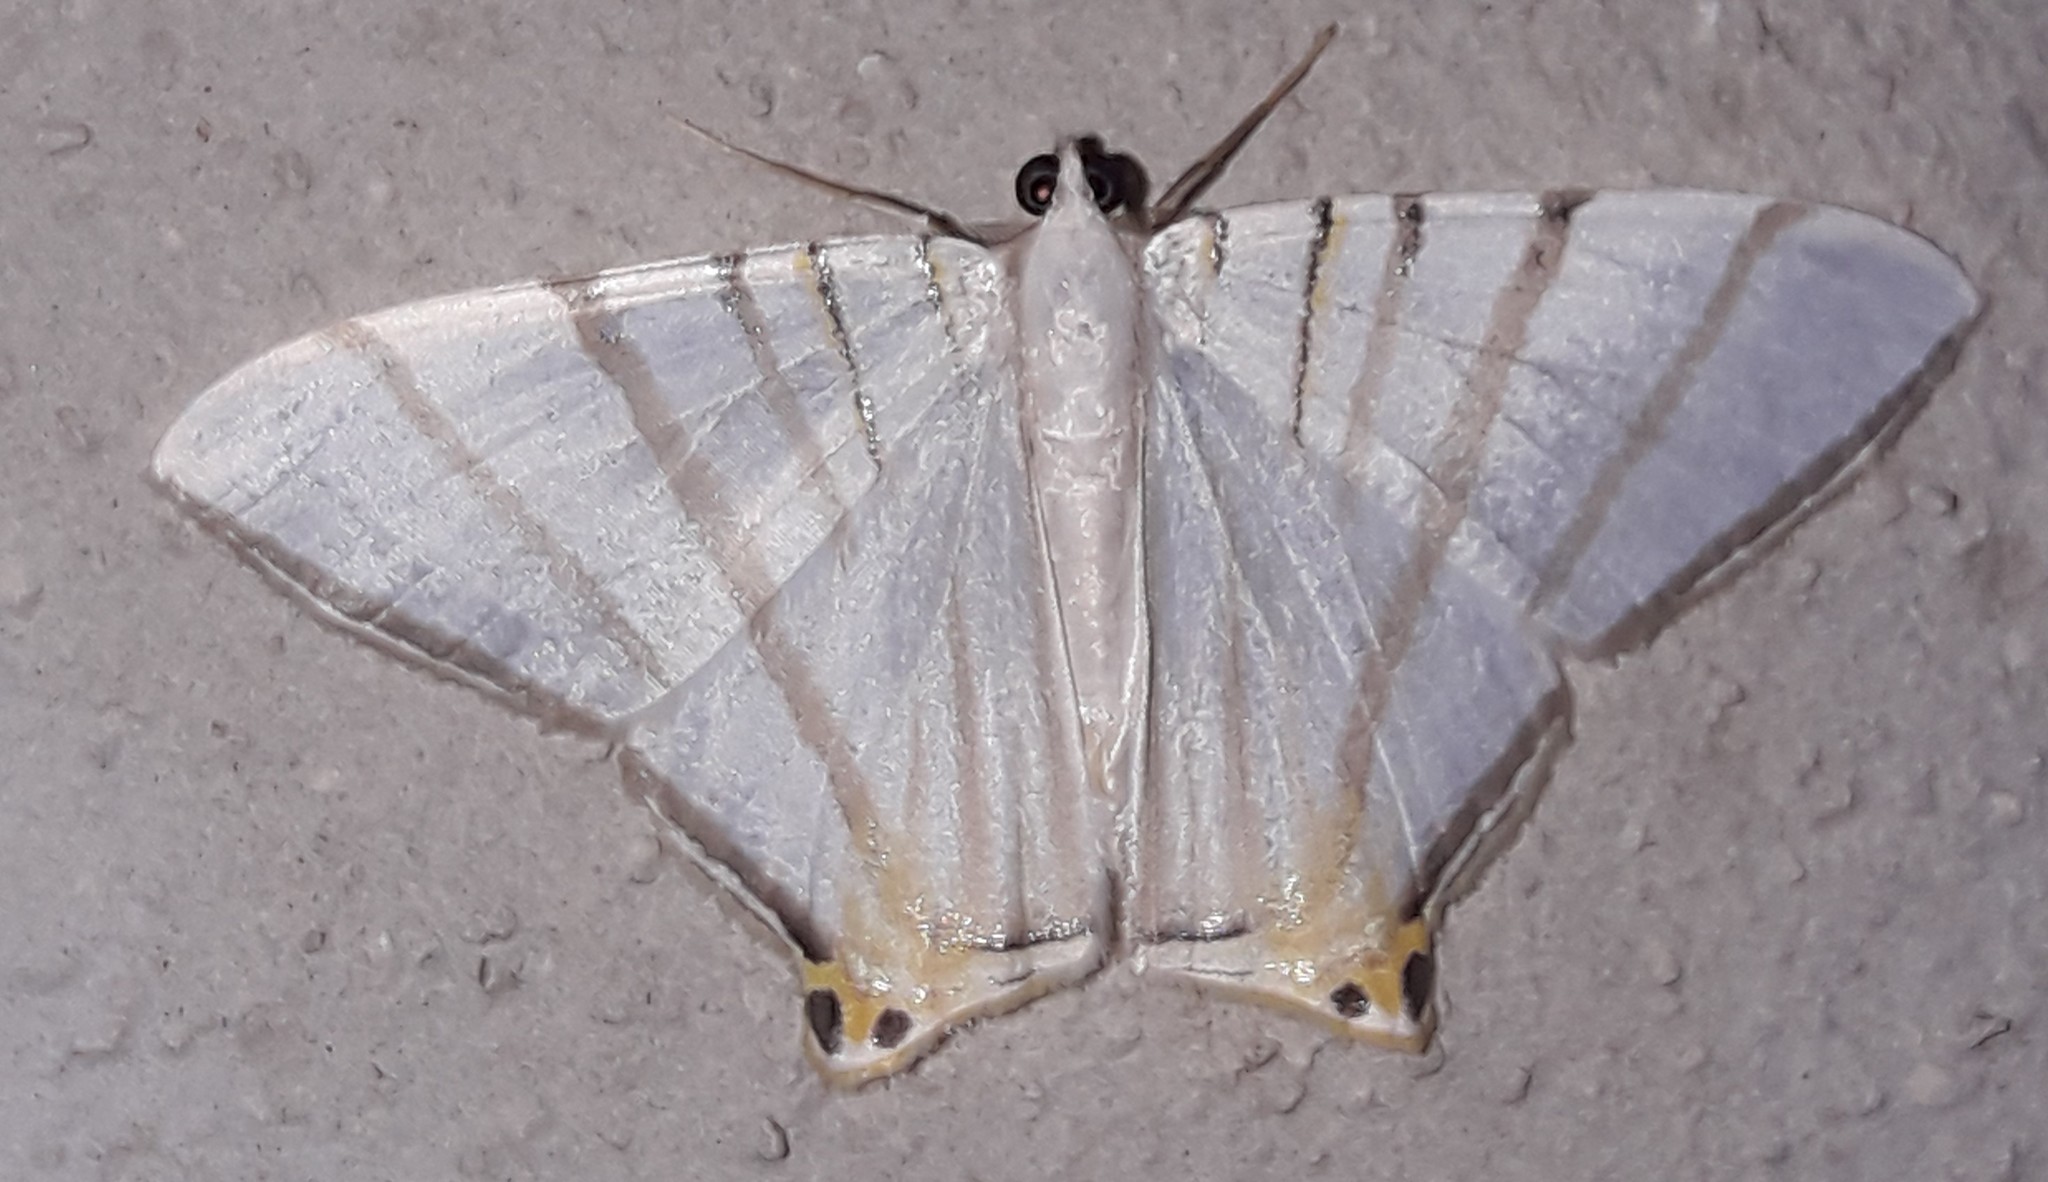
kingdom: Animalia
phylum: Arthropoda
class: Insecta
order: Lepidoptera
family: Geometridae
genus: Phrygionis
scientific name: Phrygionis platinata
